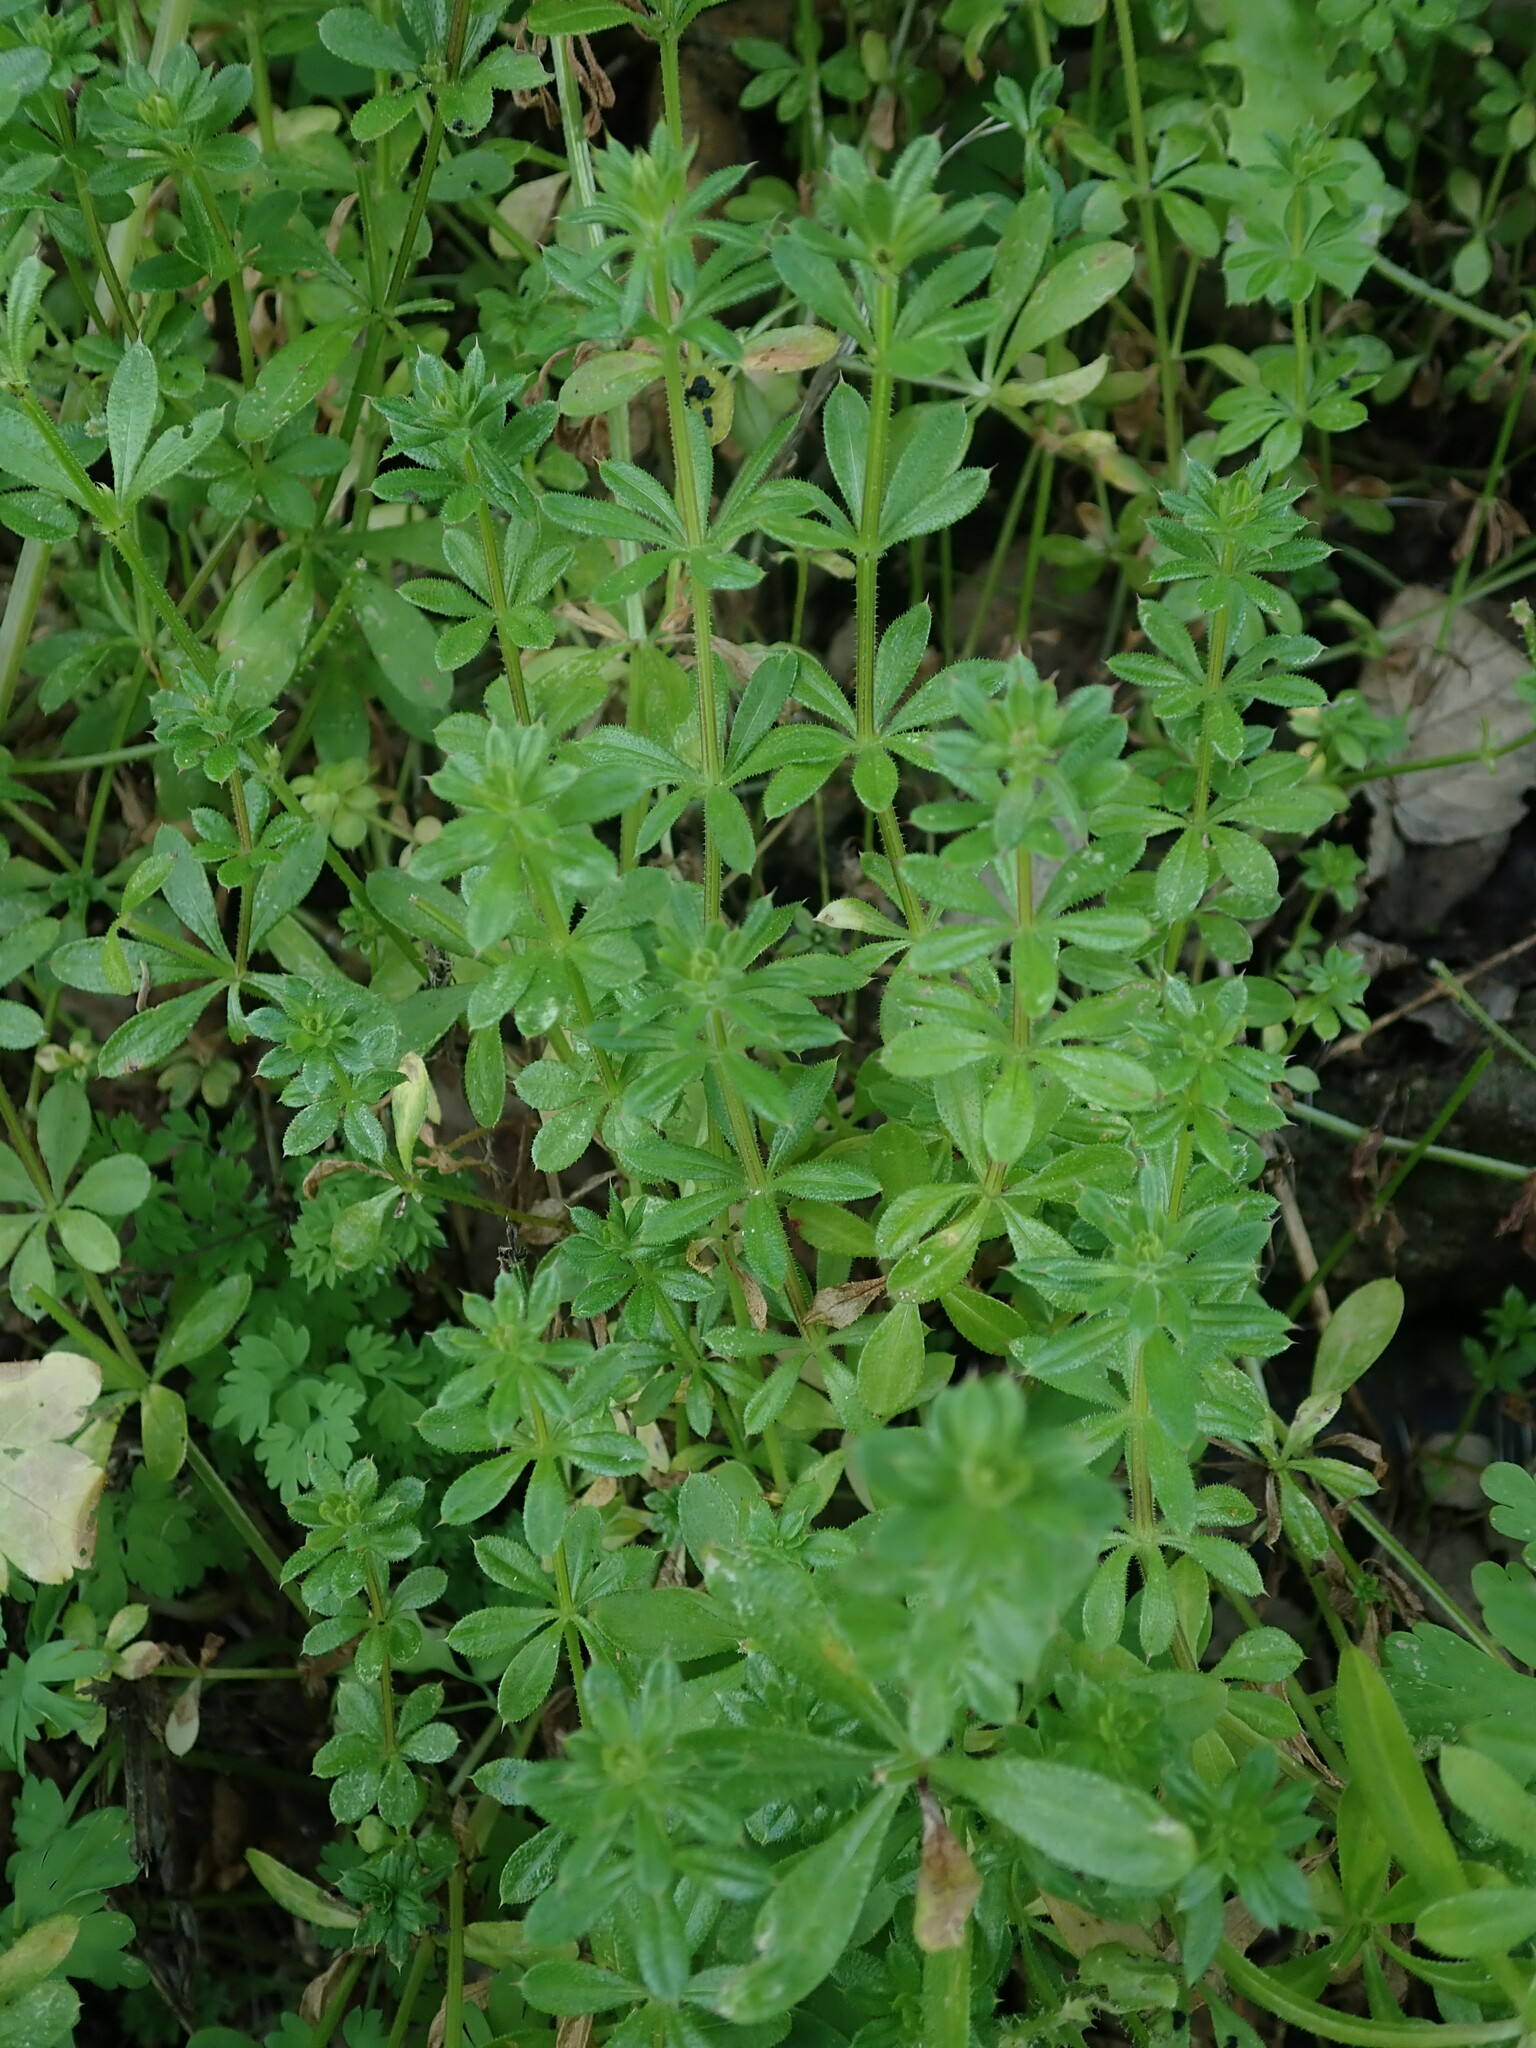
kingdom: Plantae
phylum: Tracheophyta
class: Magnoliopsida
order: Gentianales
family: Rubiaceae
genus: Galium
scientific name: Galium aparine
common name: Cleavers
